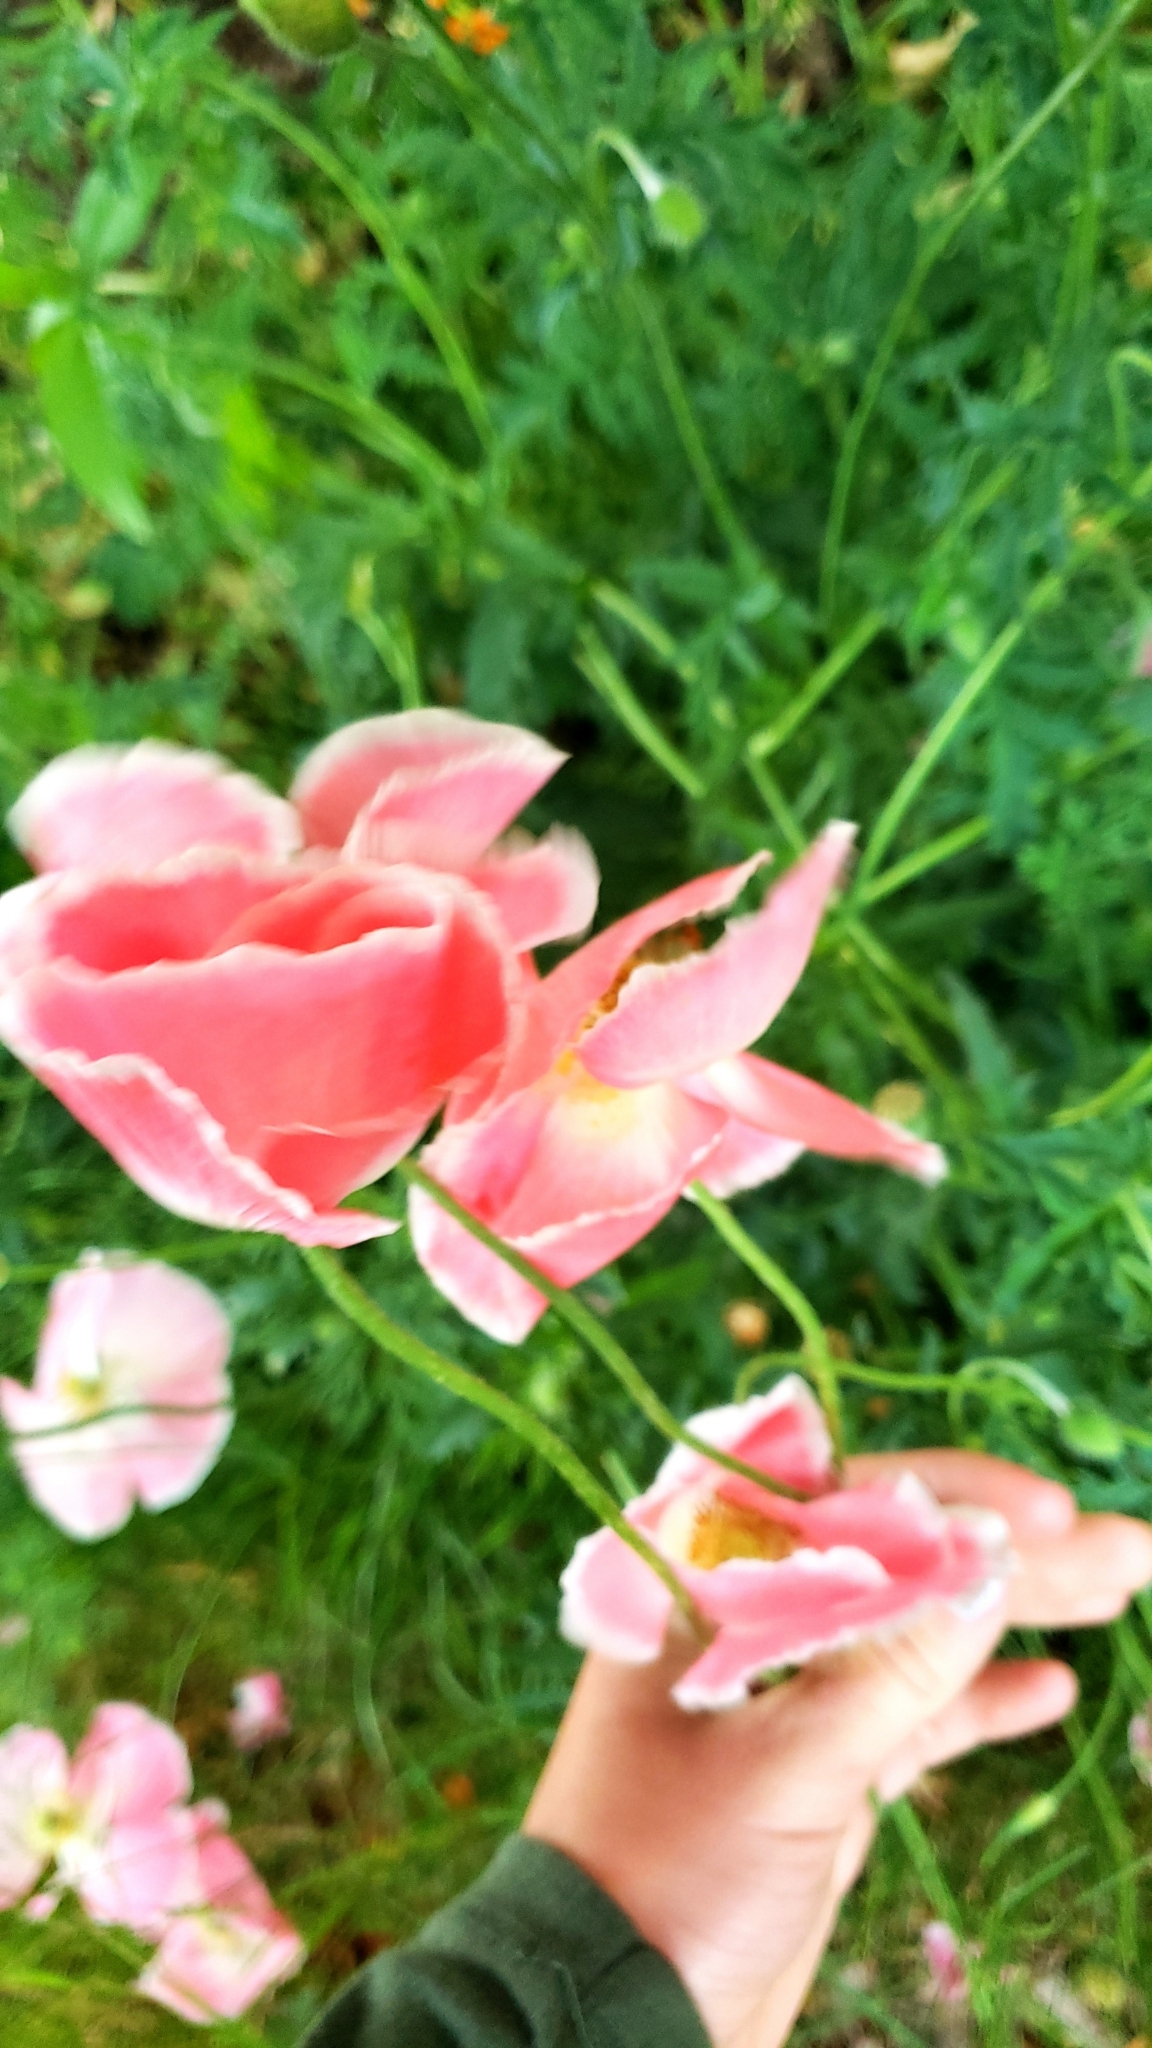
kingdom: Plantae
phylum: Tracheophyta
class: Magnoliopsida
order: Ranunculales
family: Papaveraceae
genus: Papaver
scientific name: Papaver rhoeas
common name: Corn poppy
